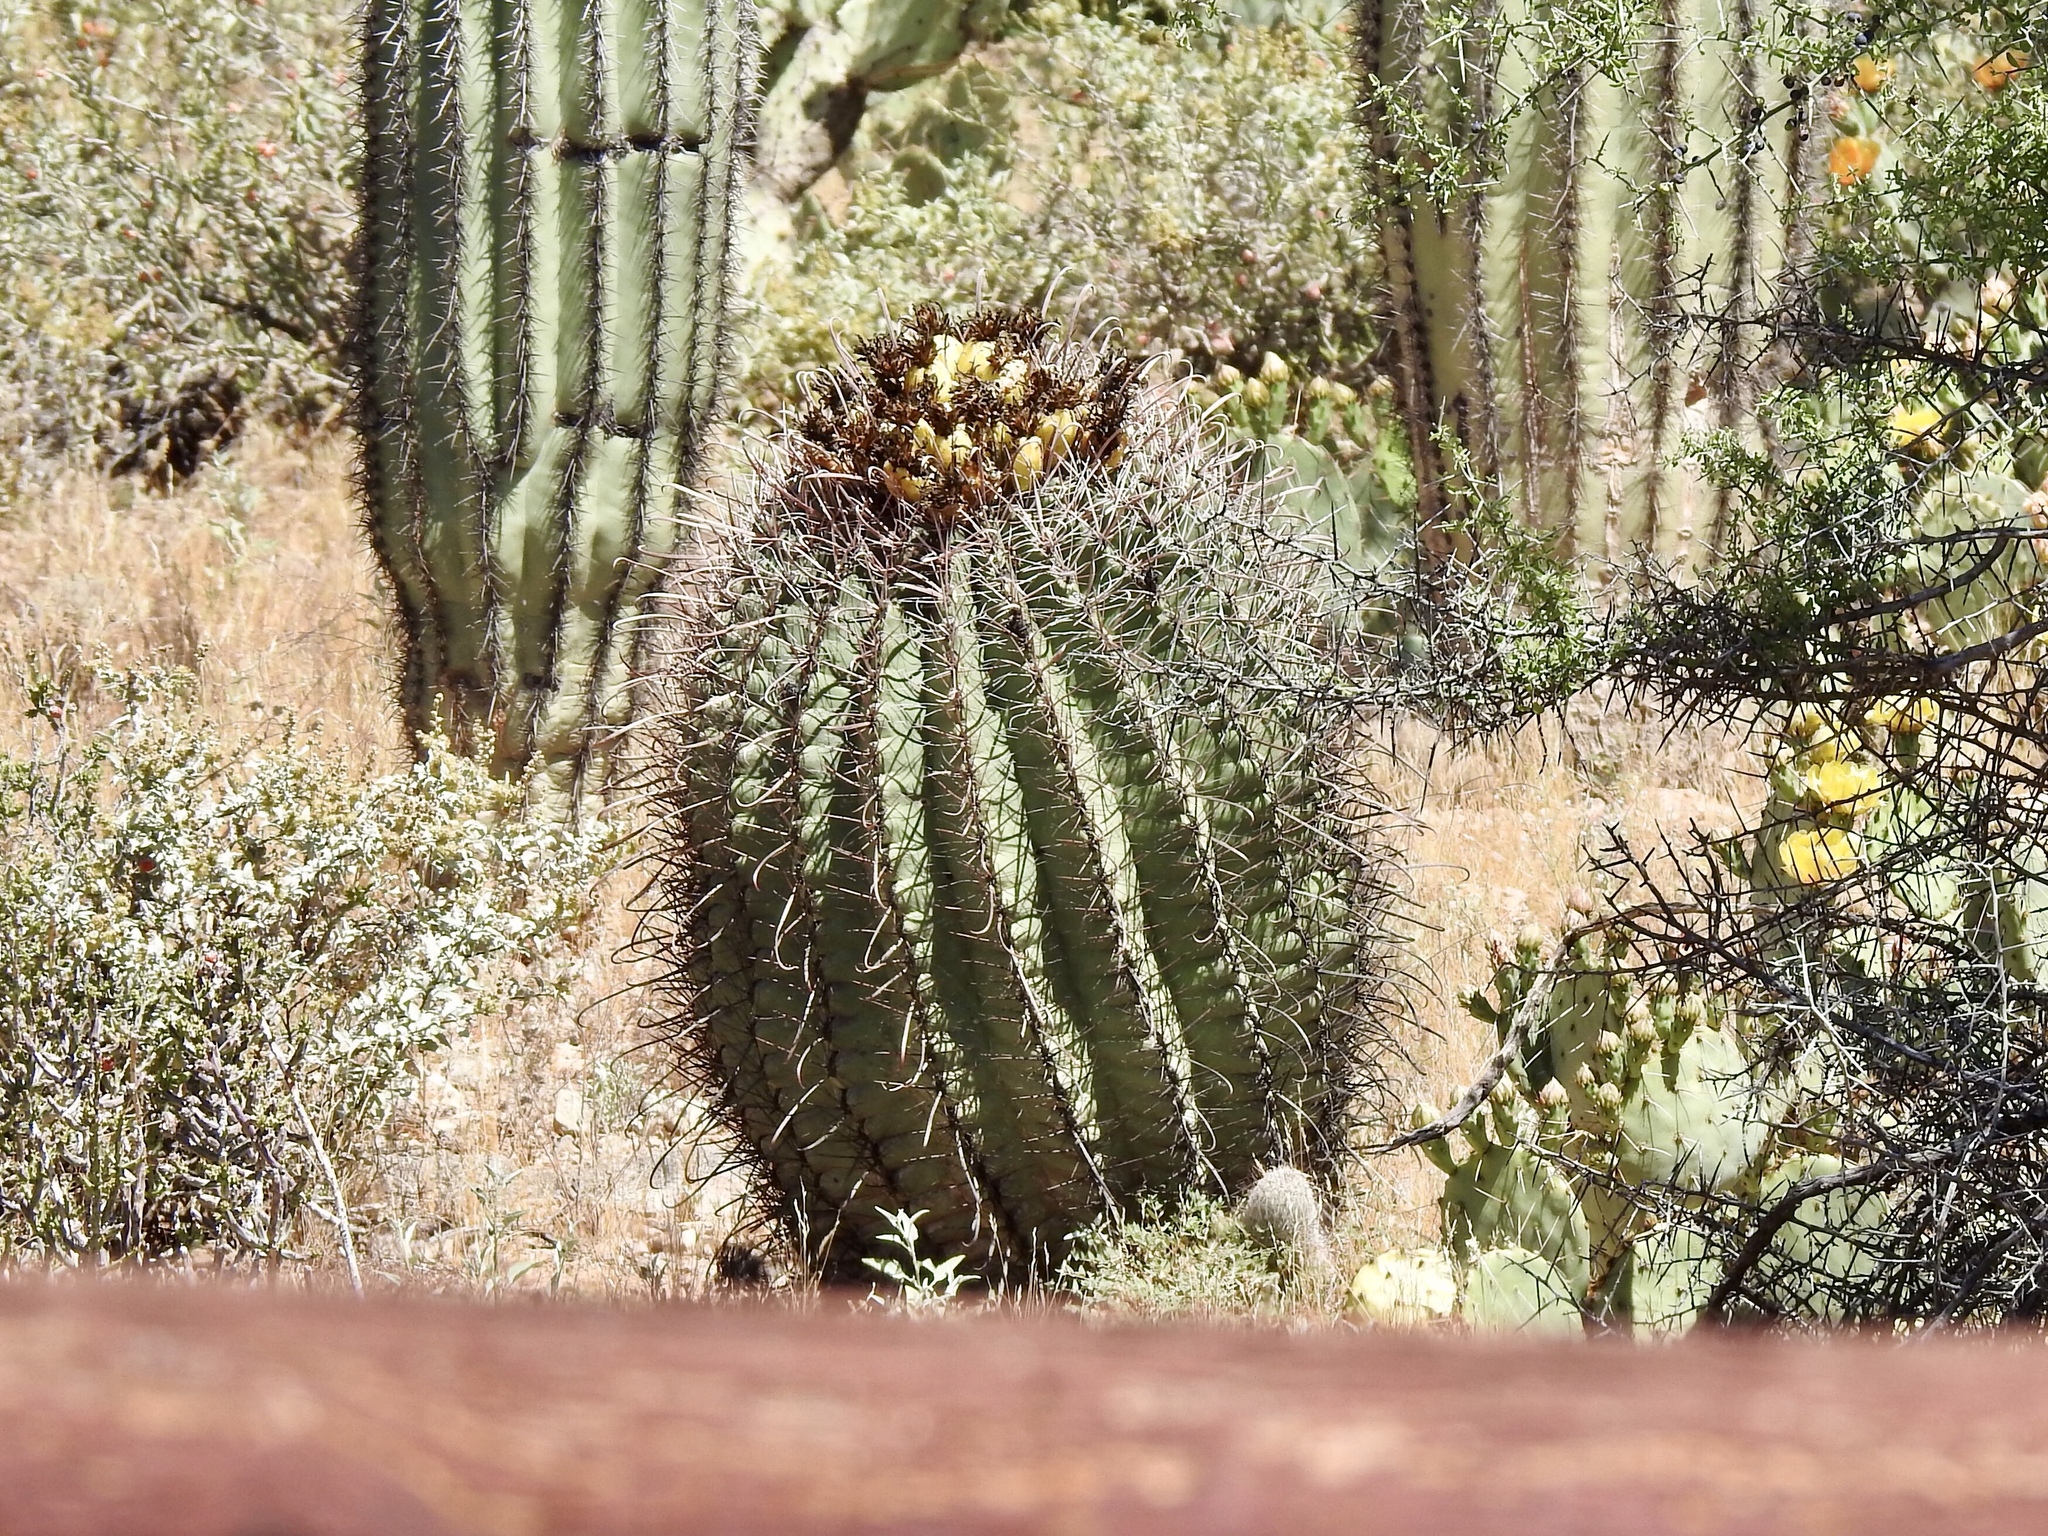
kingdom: Plantae
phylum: Tracheophyta
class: Magnoliopsida
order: Caryophyllales
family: Cactaceae
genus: Ferocactus
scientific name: Ferocactus wislizeni
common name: Candy barrel cactus
